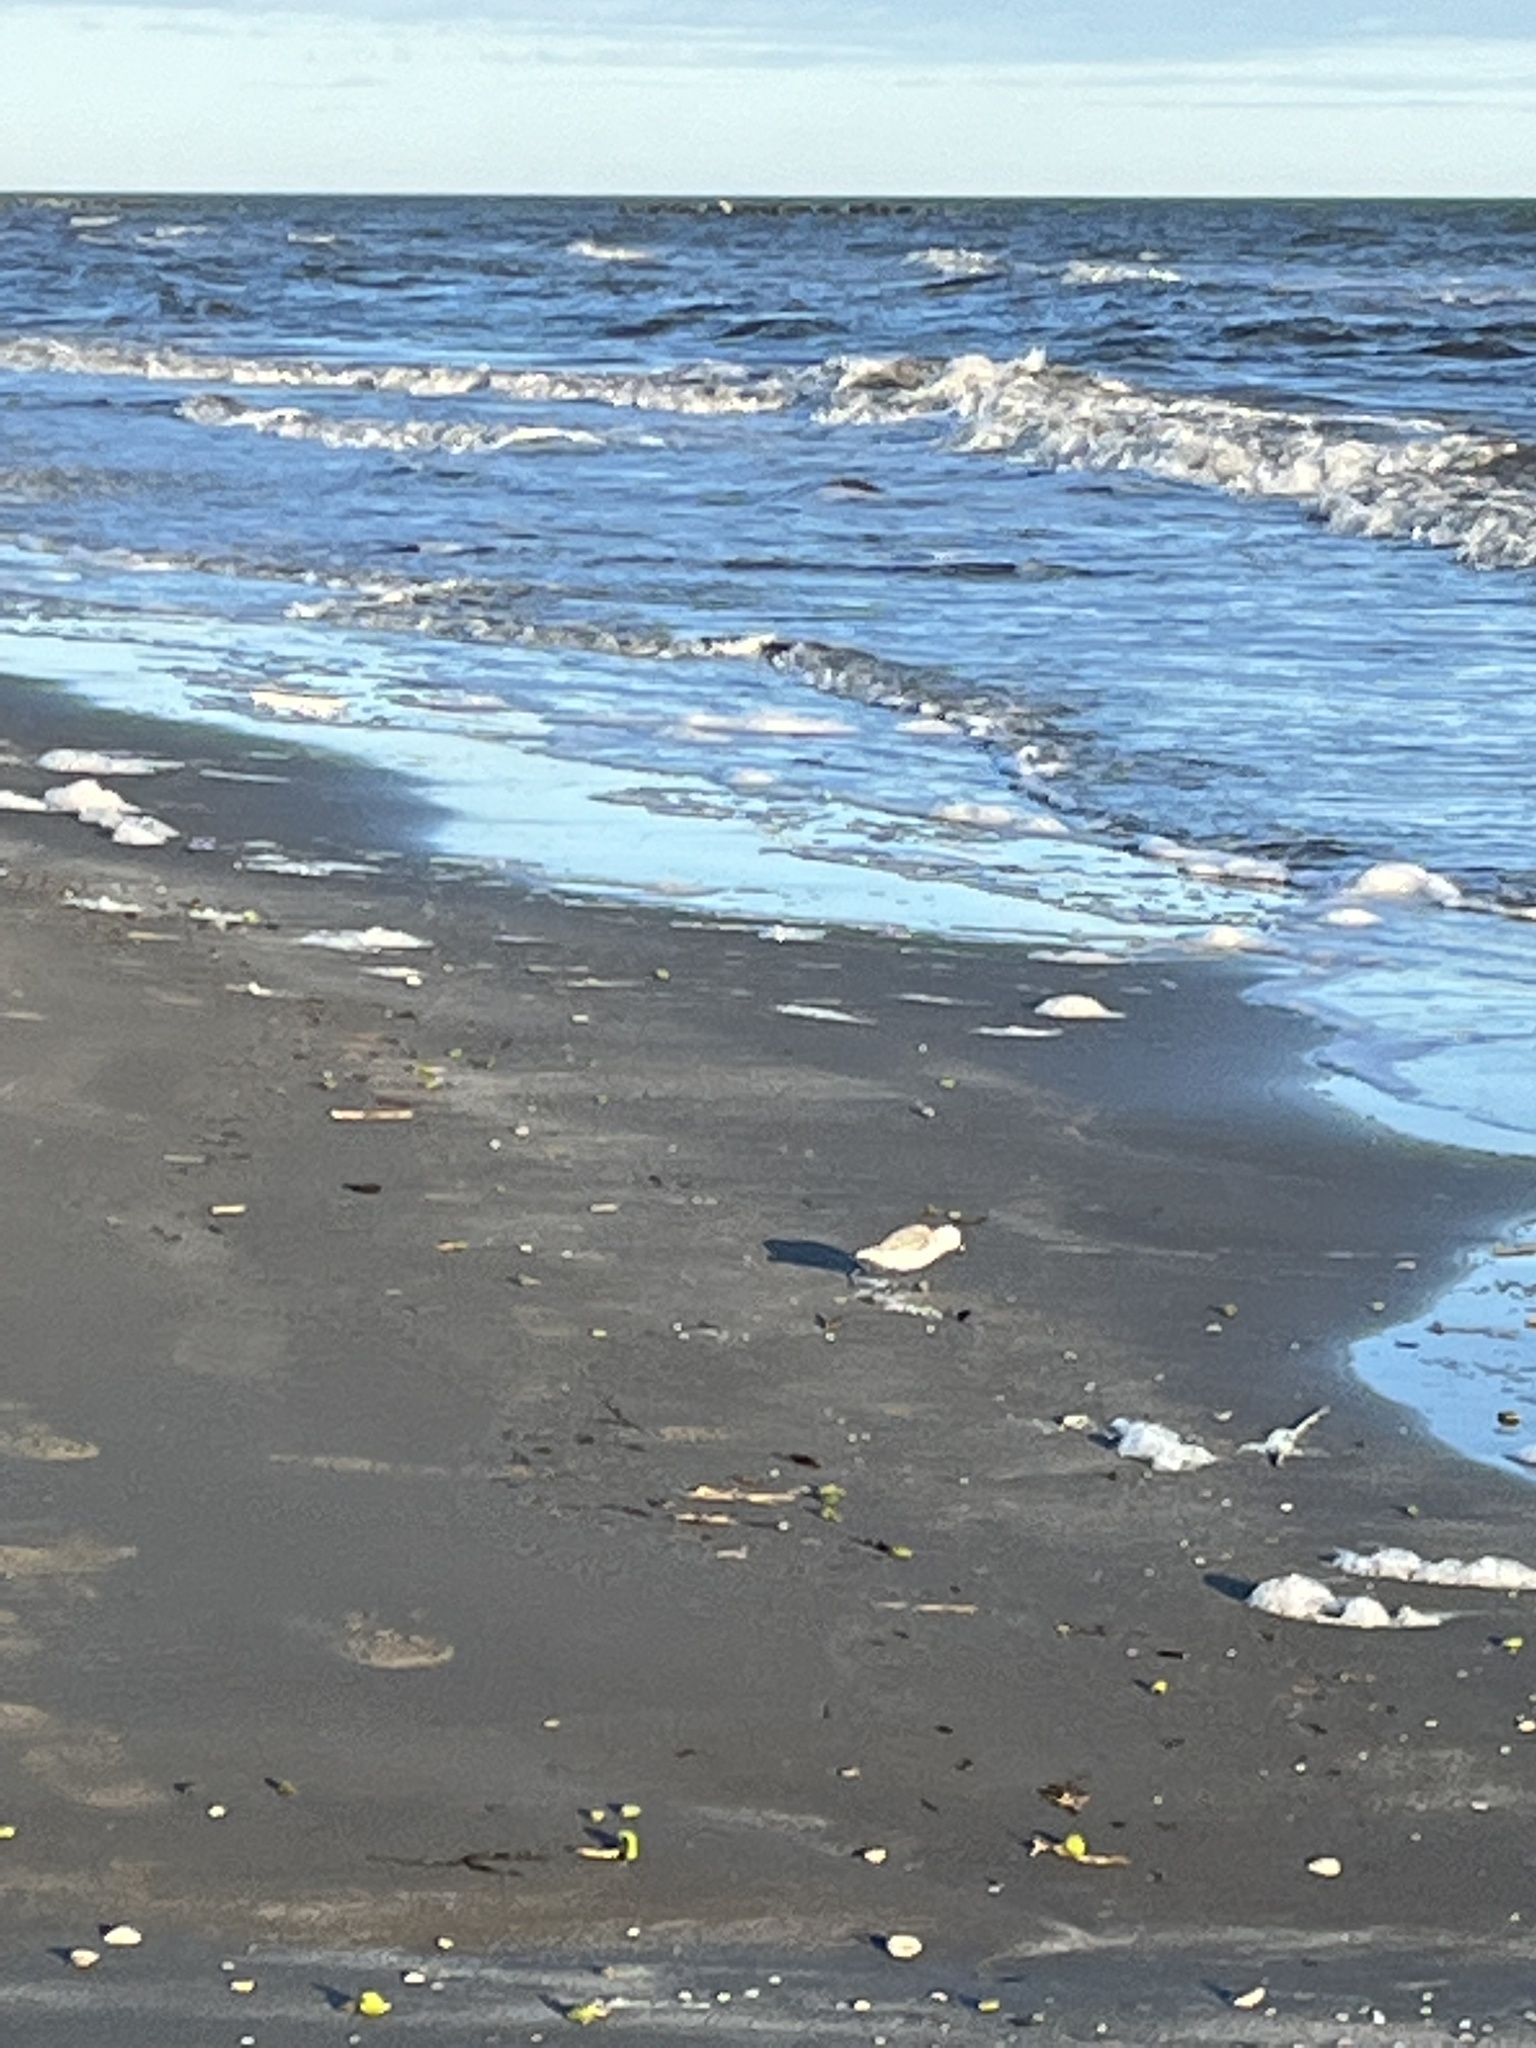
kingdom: Animalia
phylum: Chordata
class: Aves
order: Charadriiformes
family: Scolopacidae
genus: Calidris
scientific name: Calidris alba
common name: Sanderling
